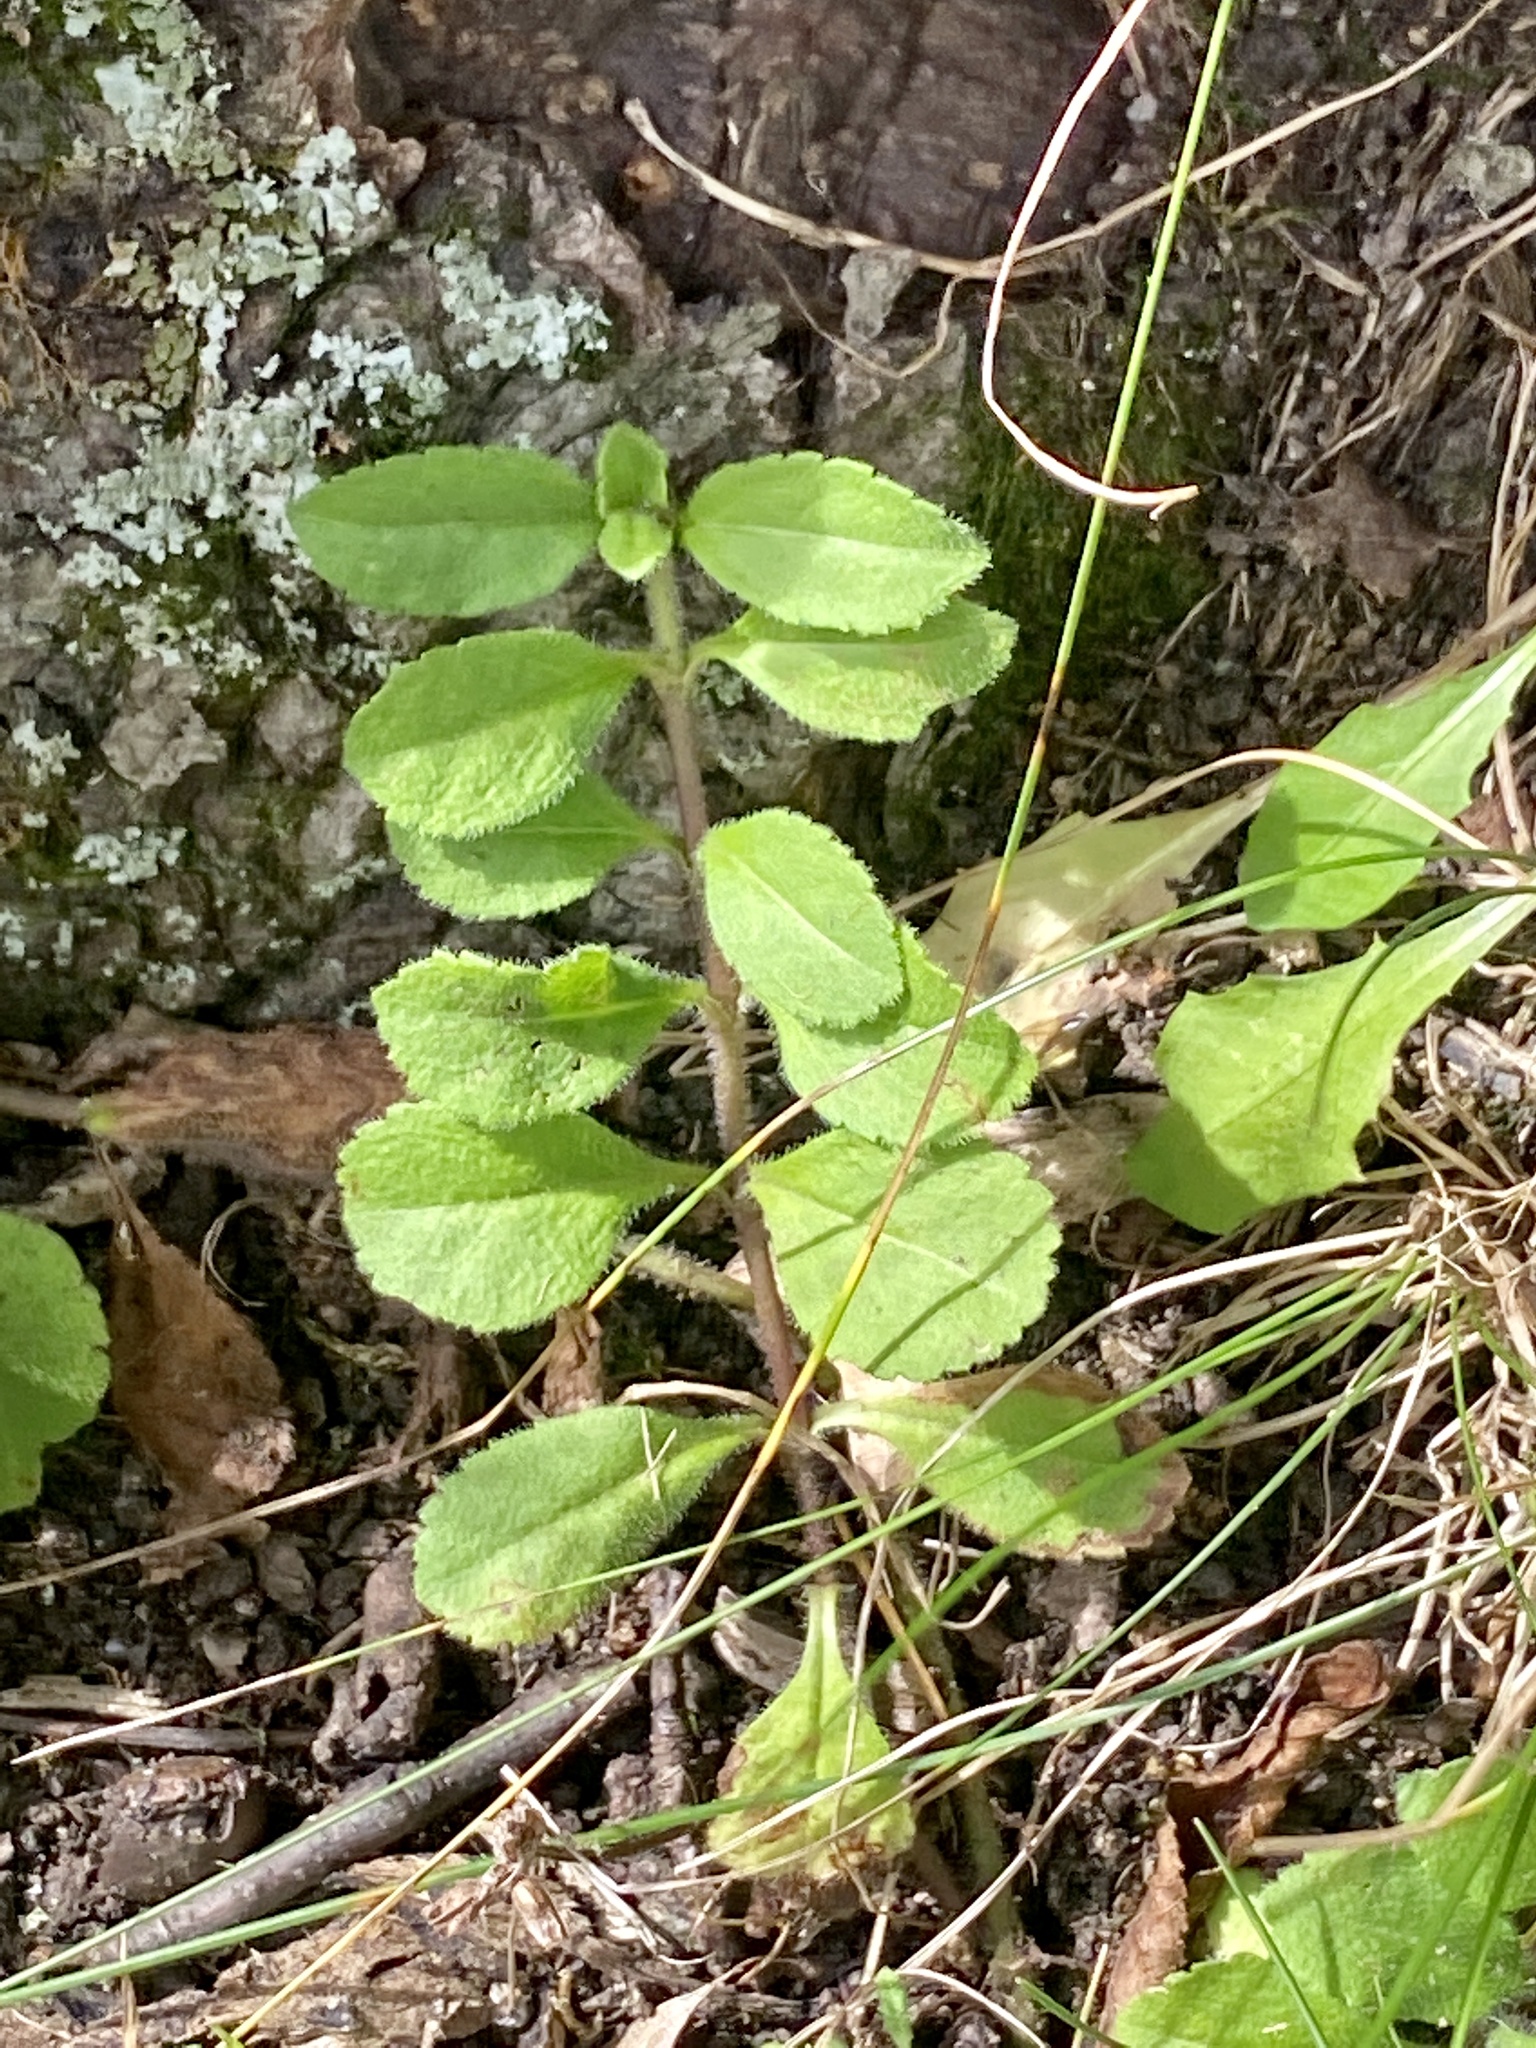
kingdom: Plantae
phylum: Tracheophyta
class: Magnoliopsida
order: Lamiales
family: Plantaginaceae
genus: Veronica
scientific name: Veronica officinalis
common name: Common speedwell
